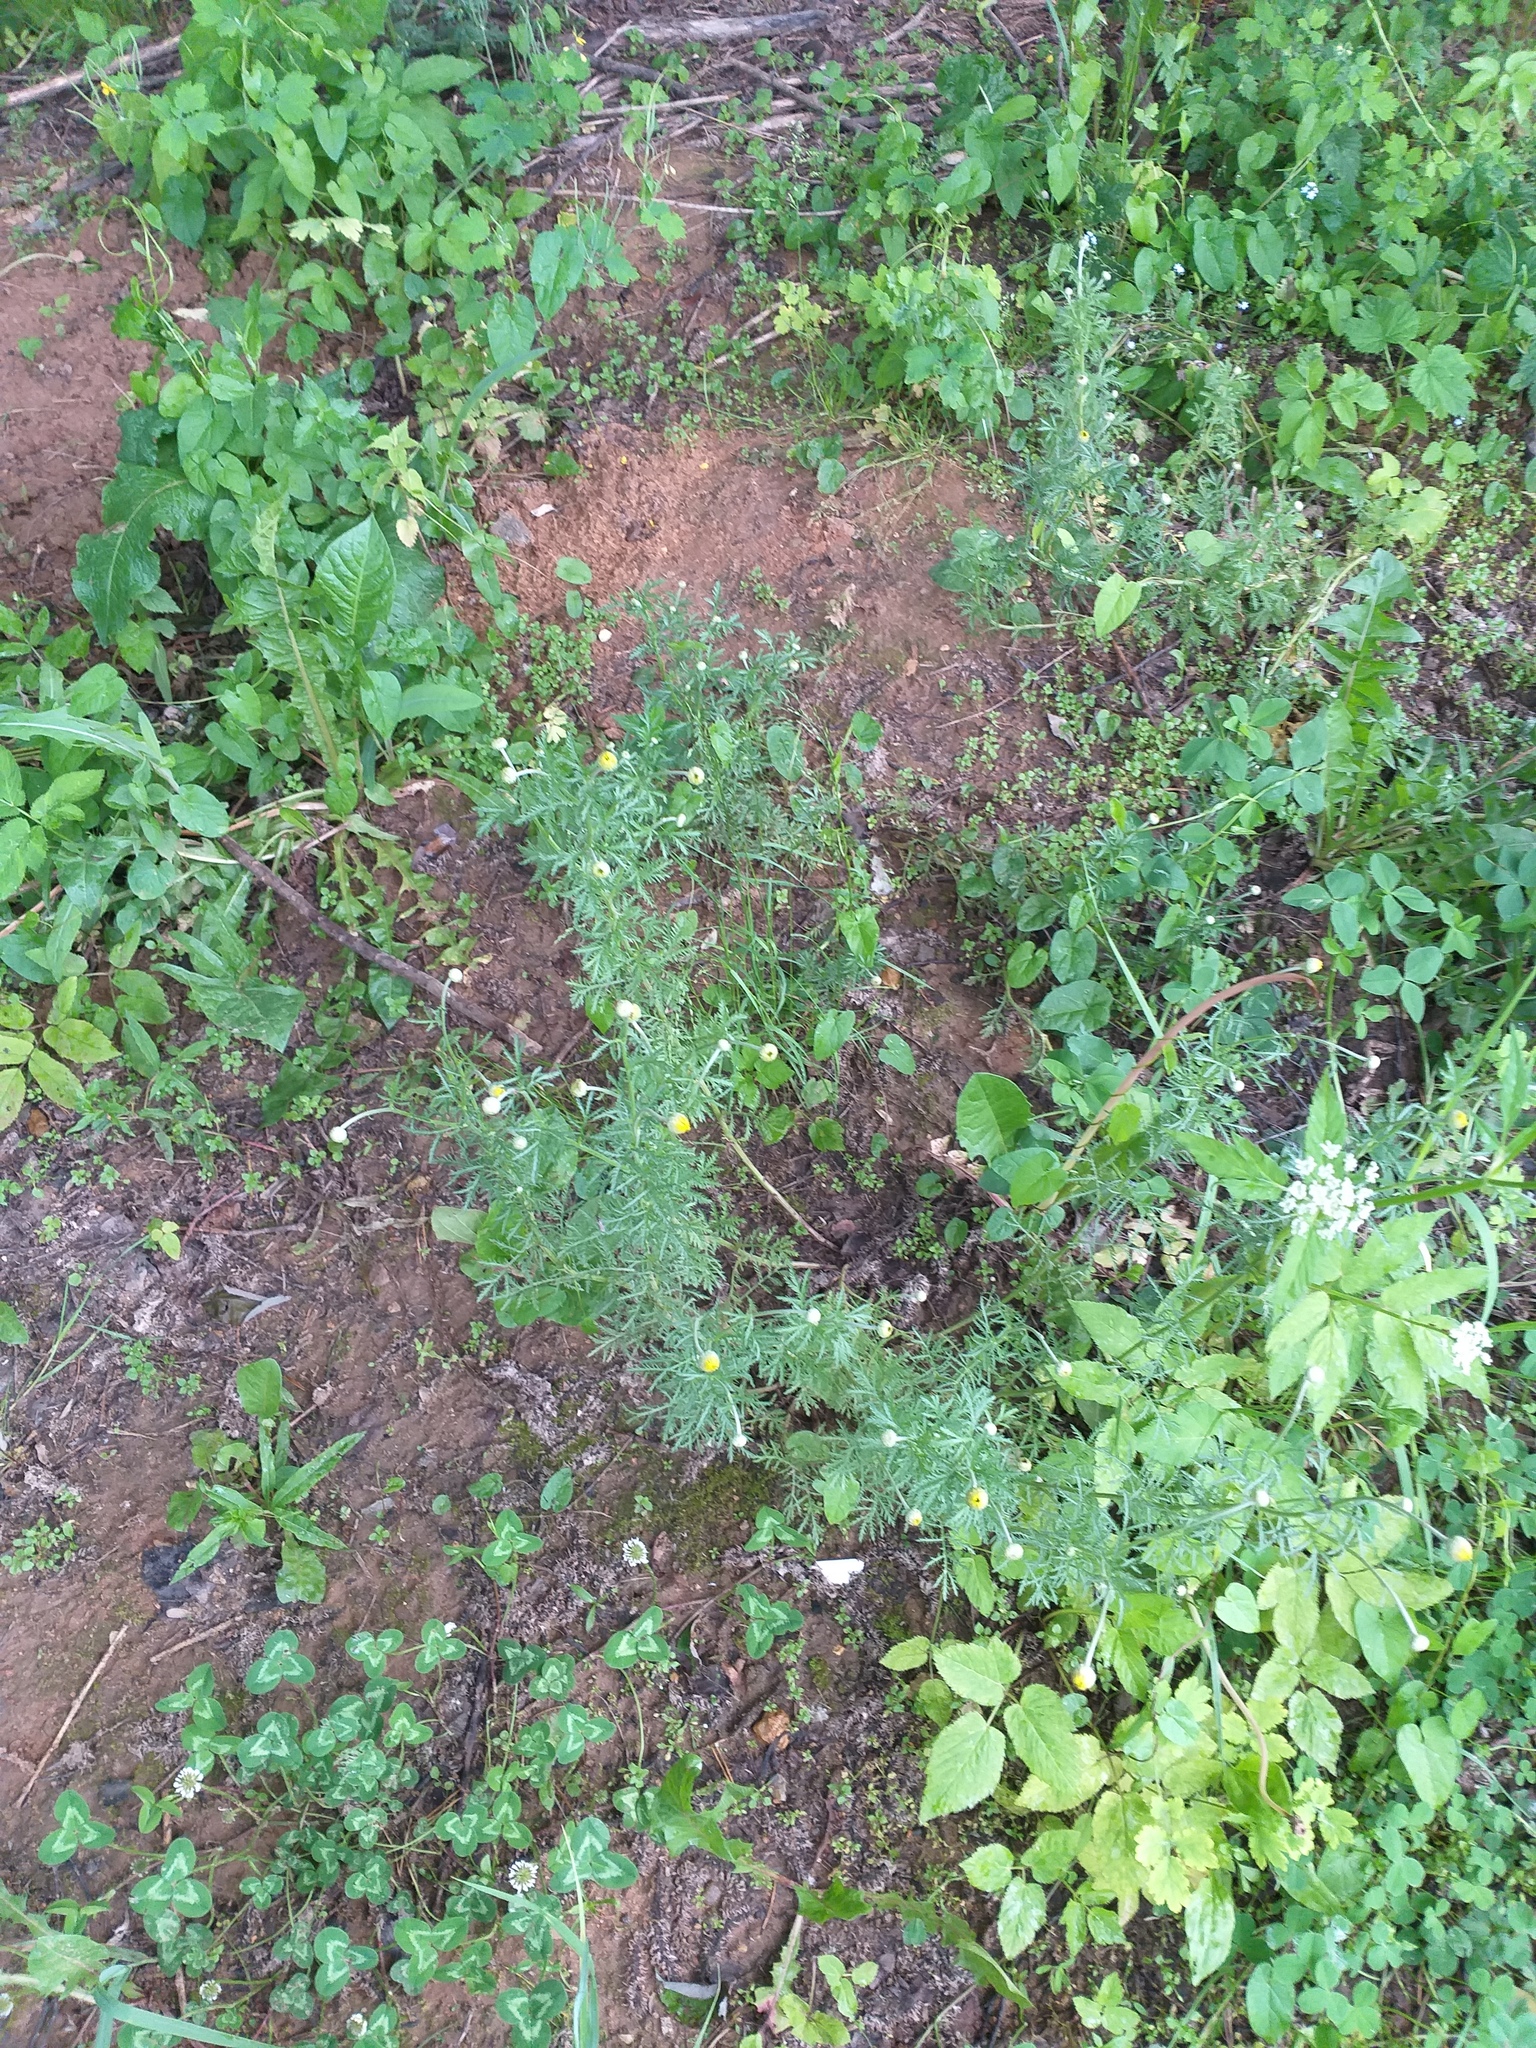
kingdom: Plantae
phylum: Tracheophyta
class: Magnoliopsida
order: Asterales
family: Asteraceae
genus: Cota
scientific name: Cota tinctoria
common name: Golden chamomile
